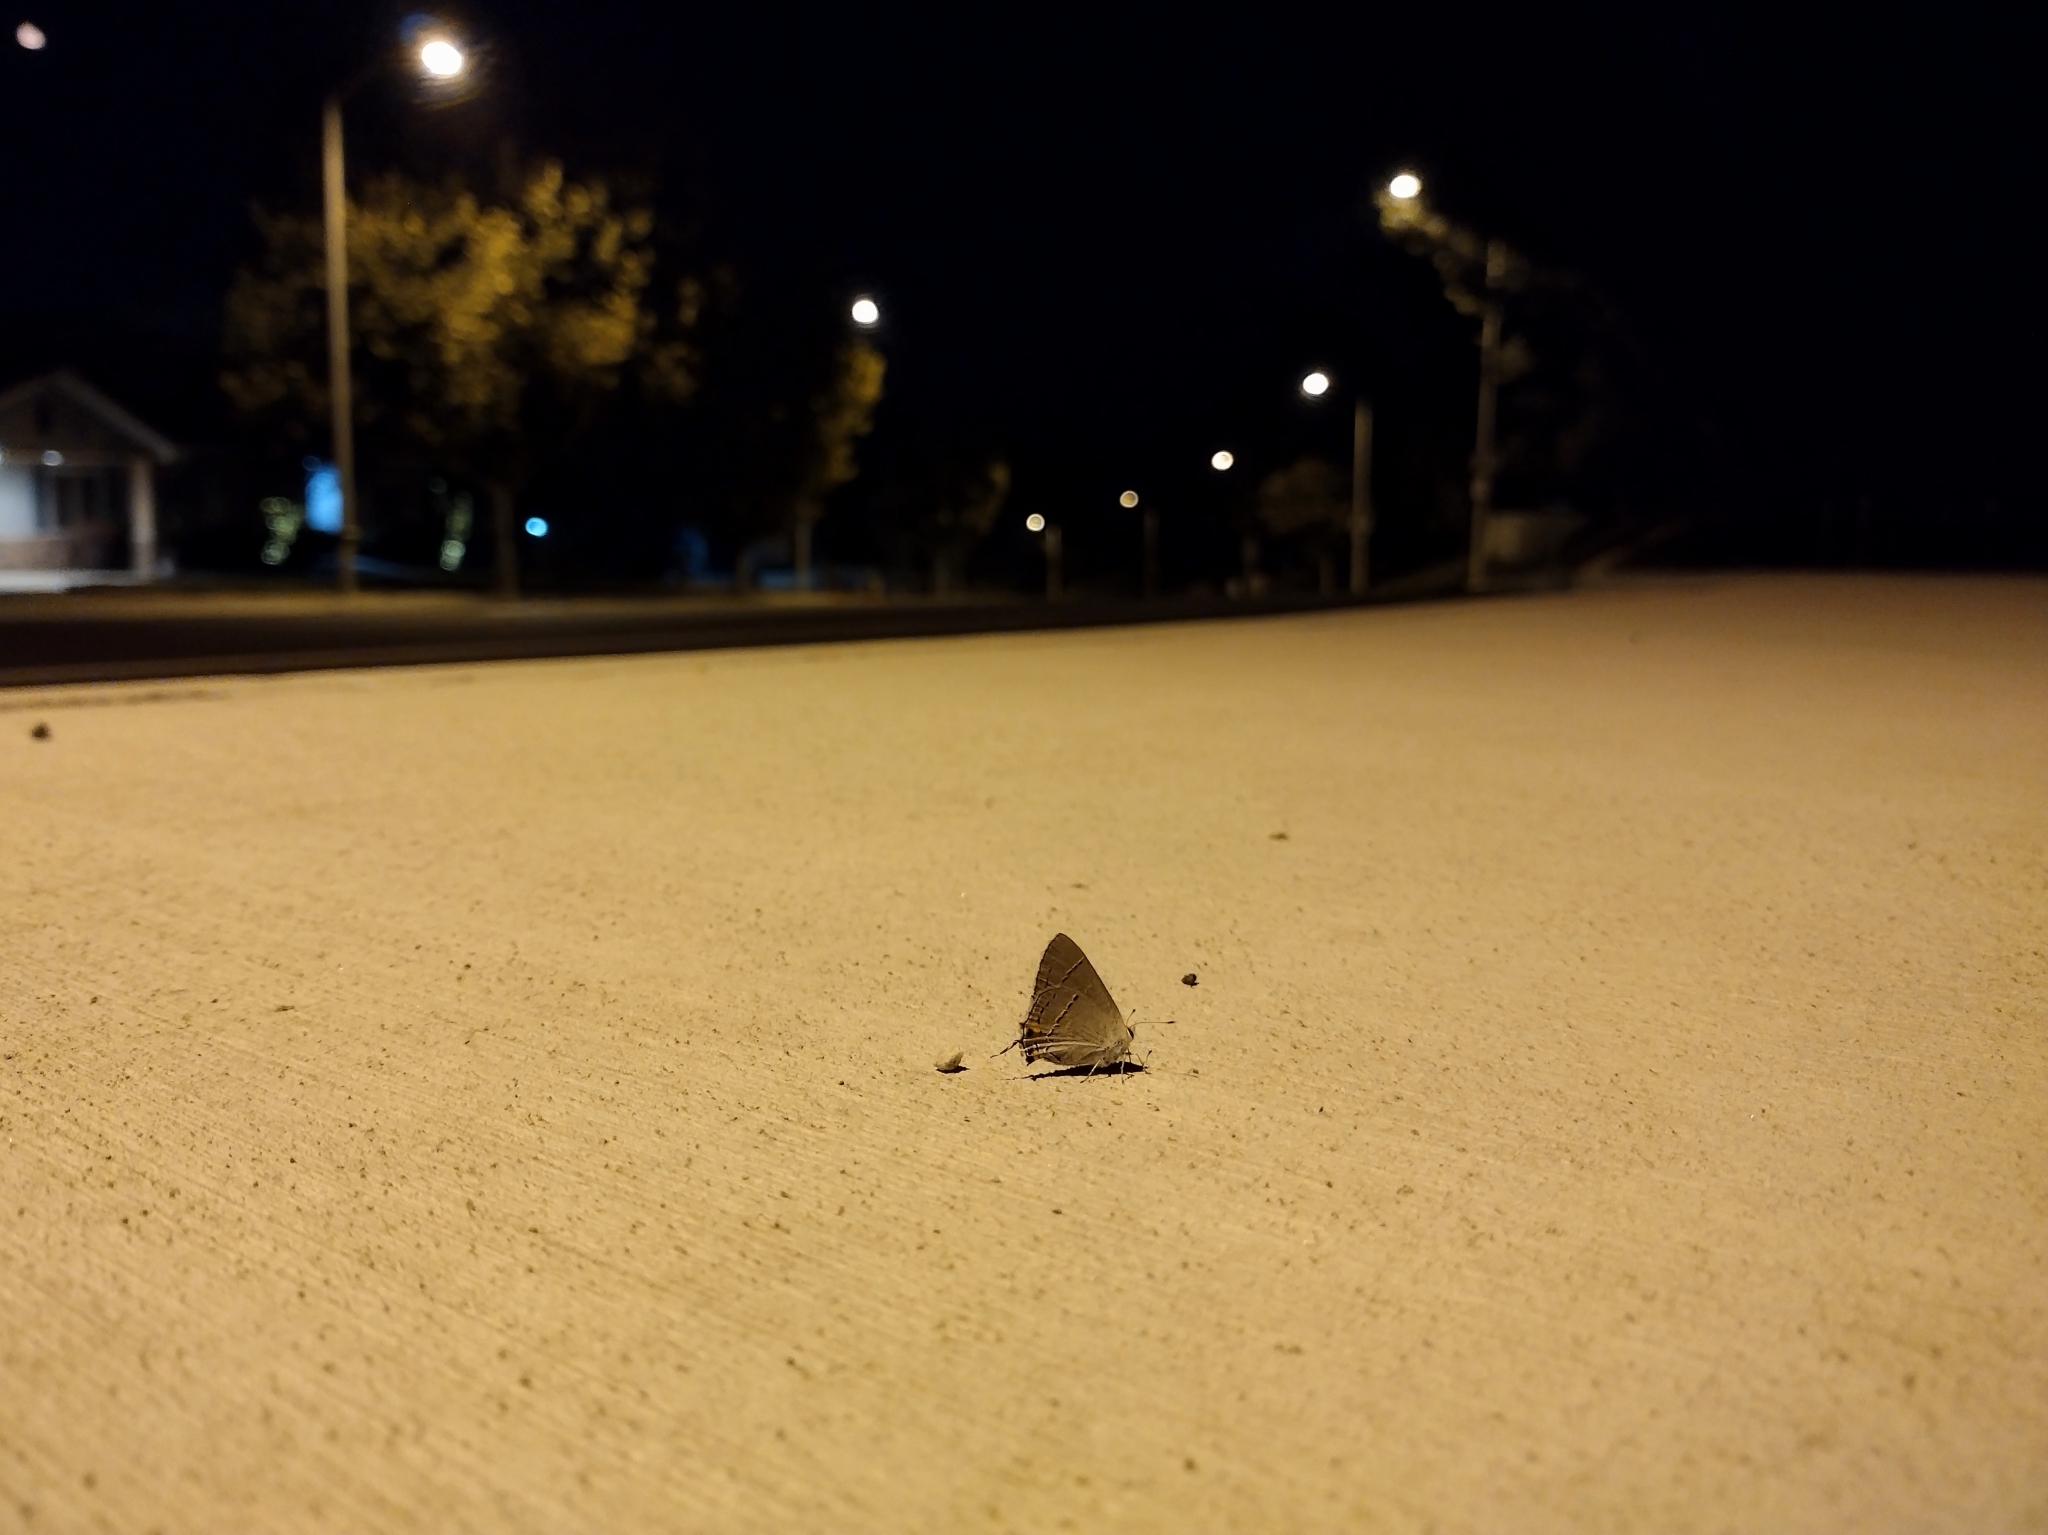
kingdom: Animalia
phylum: Arthropoda
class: Insecta
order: Lepidoptera
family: Lycaenidae
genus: Strymon
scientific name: Strymon melinus
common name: Gray hairstreak
